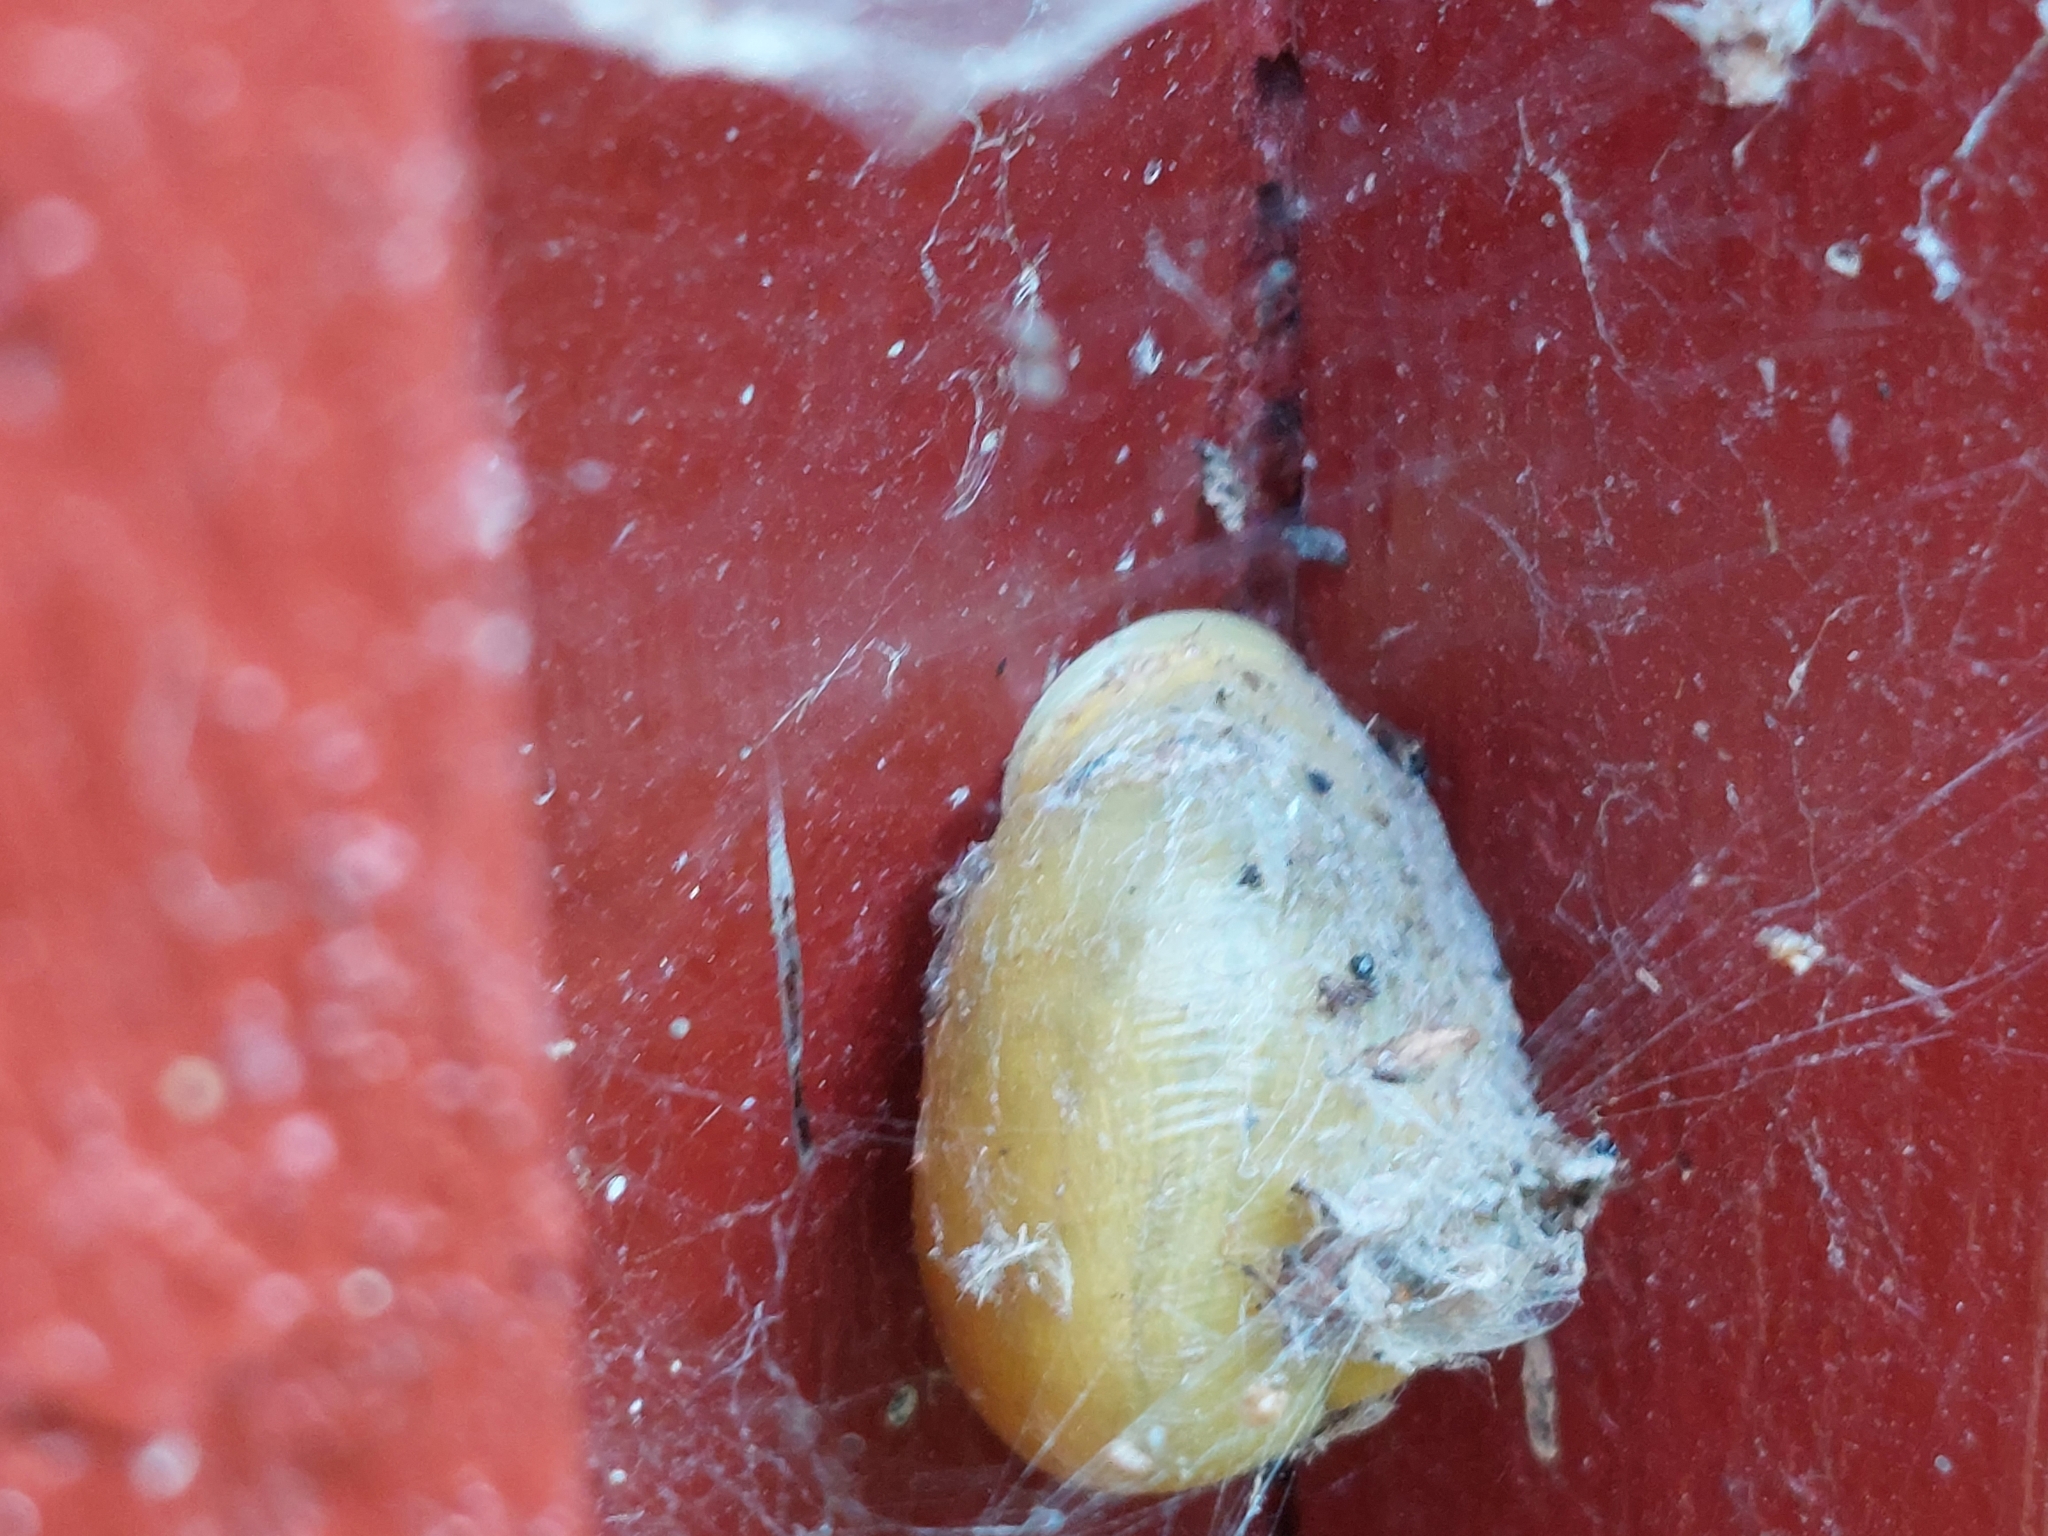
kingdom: Animalia
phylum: Mollusca
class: Gastropoda
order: Stylommatophora
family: Helicidae
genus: Cepaea
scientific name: Cepaea hortensis
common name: White-lip gardensnail
